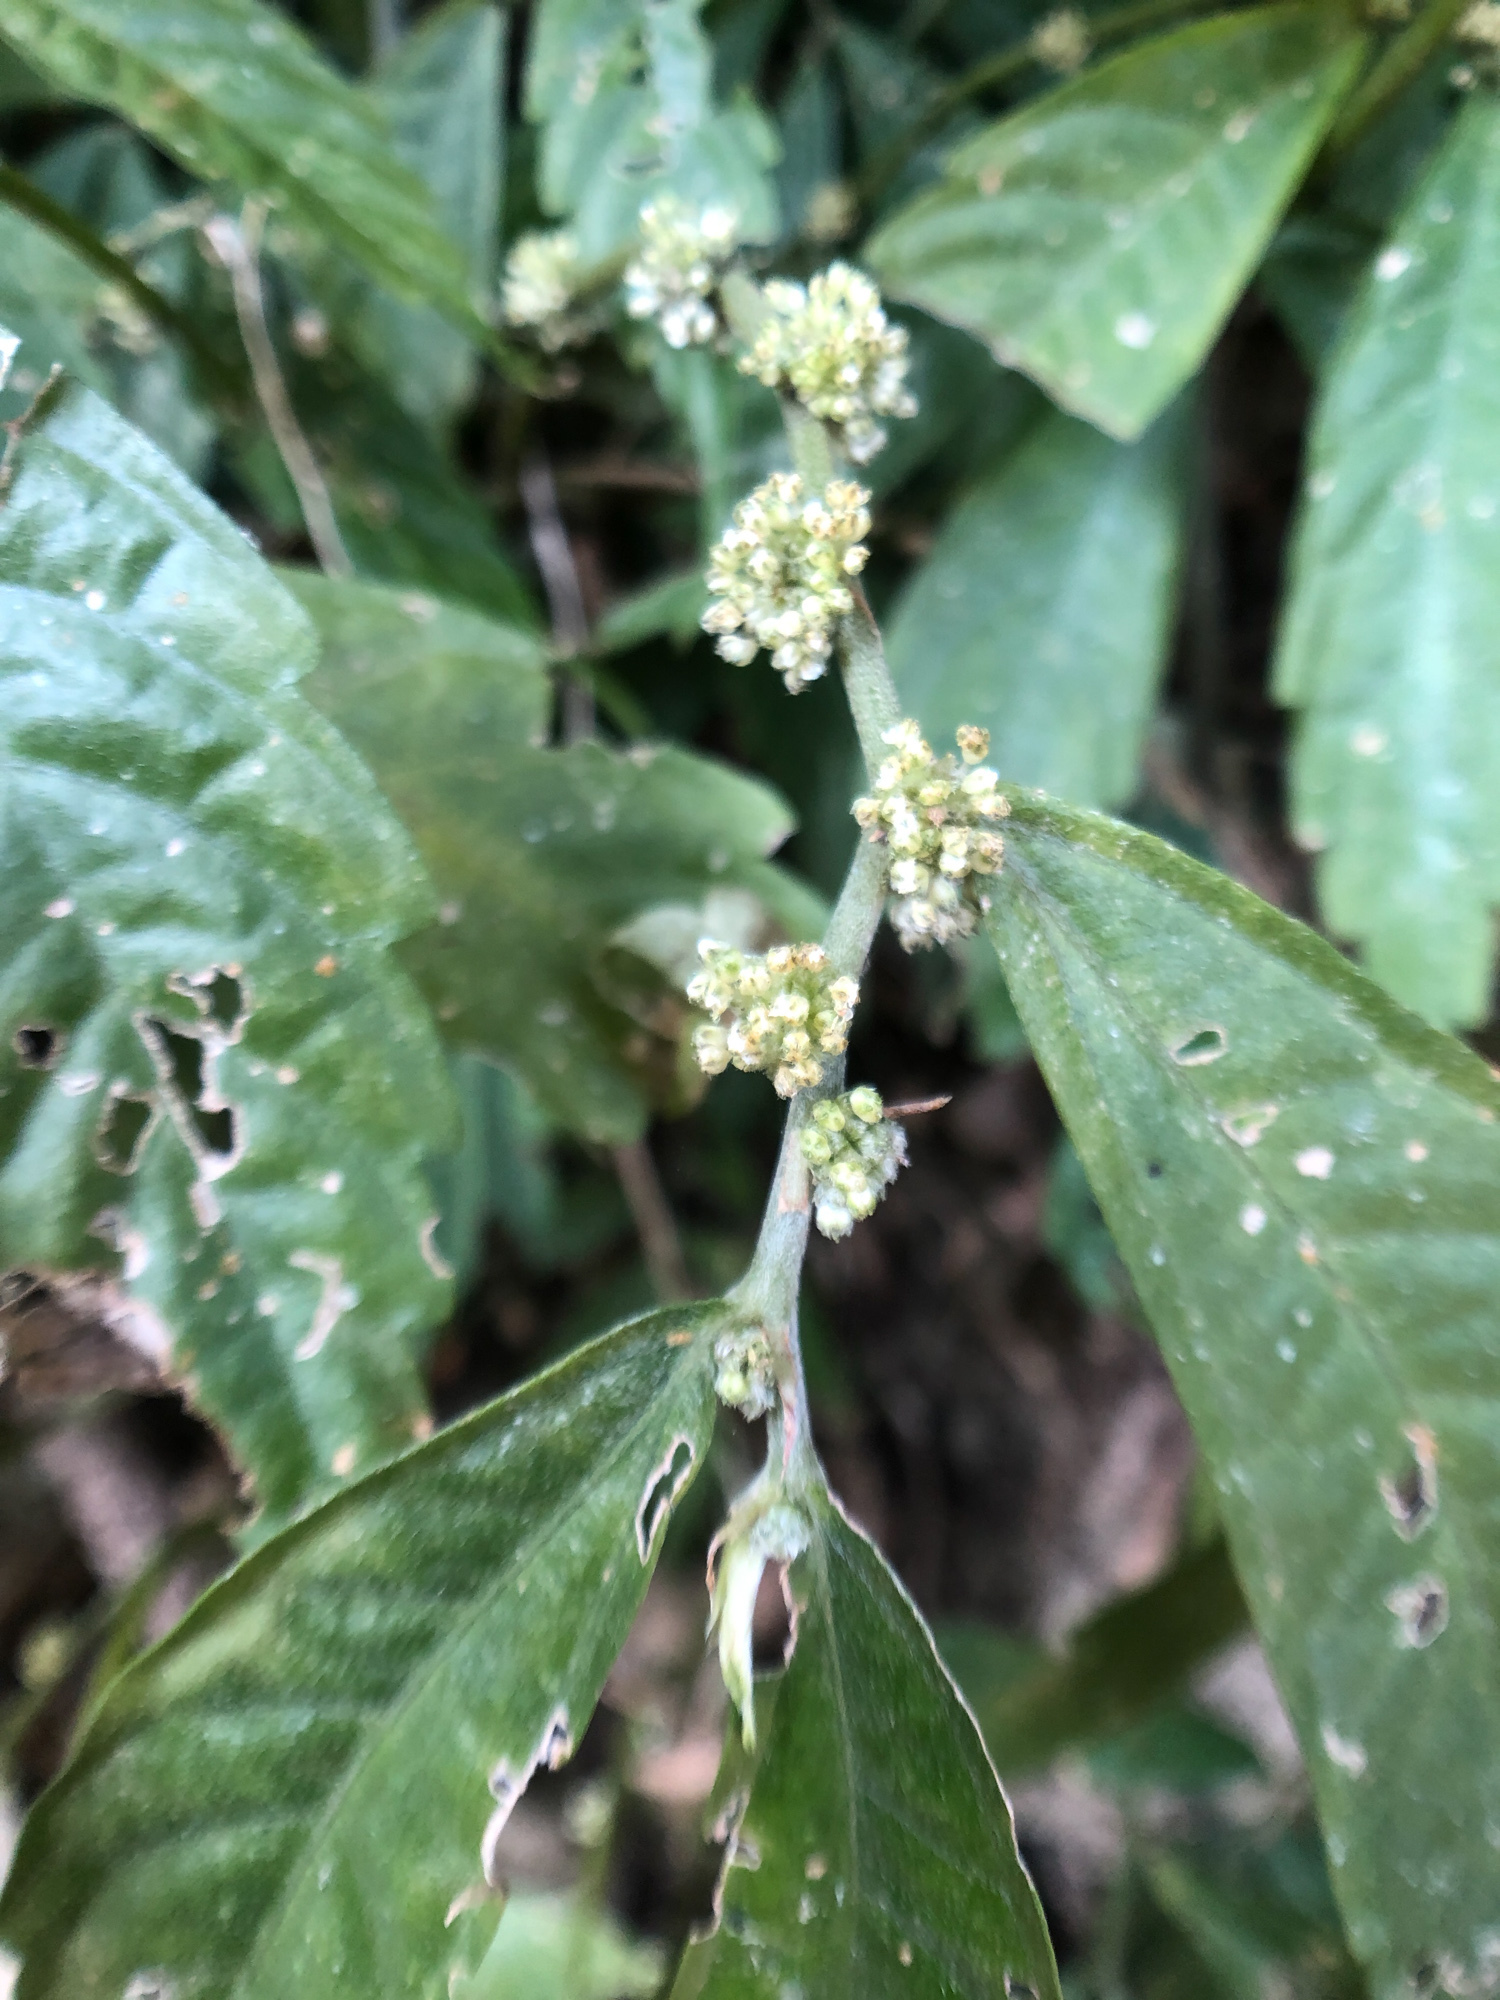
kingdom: Plantae
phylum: Tracheophyta
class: Magnoliopsida
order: Rosales
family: Urticaceae
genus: Elatostema
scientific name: Elatostema lineolatum
